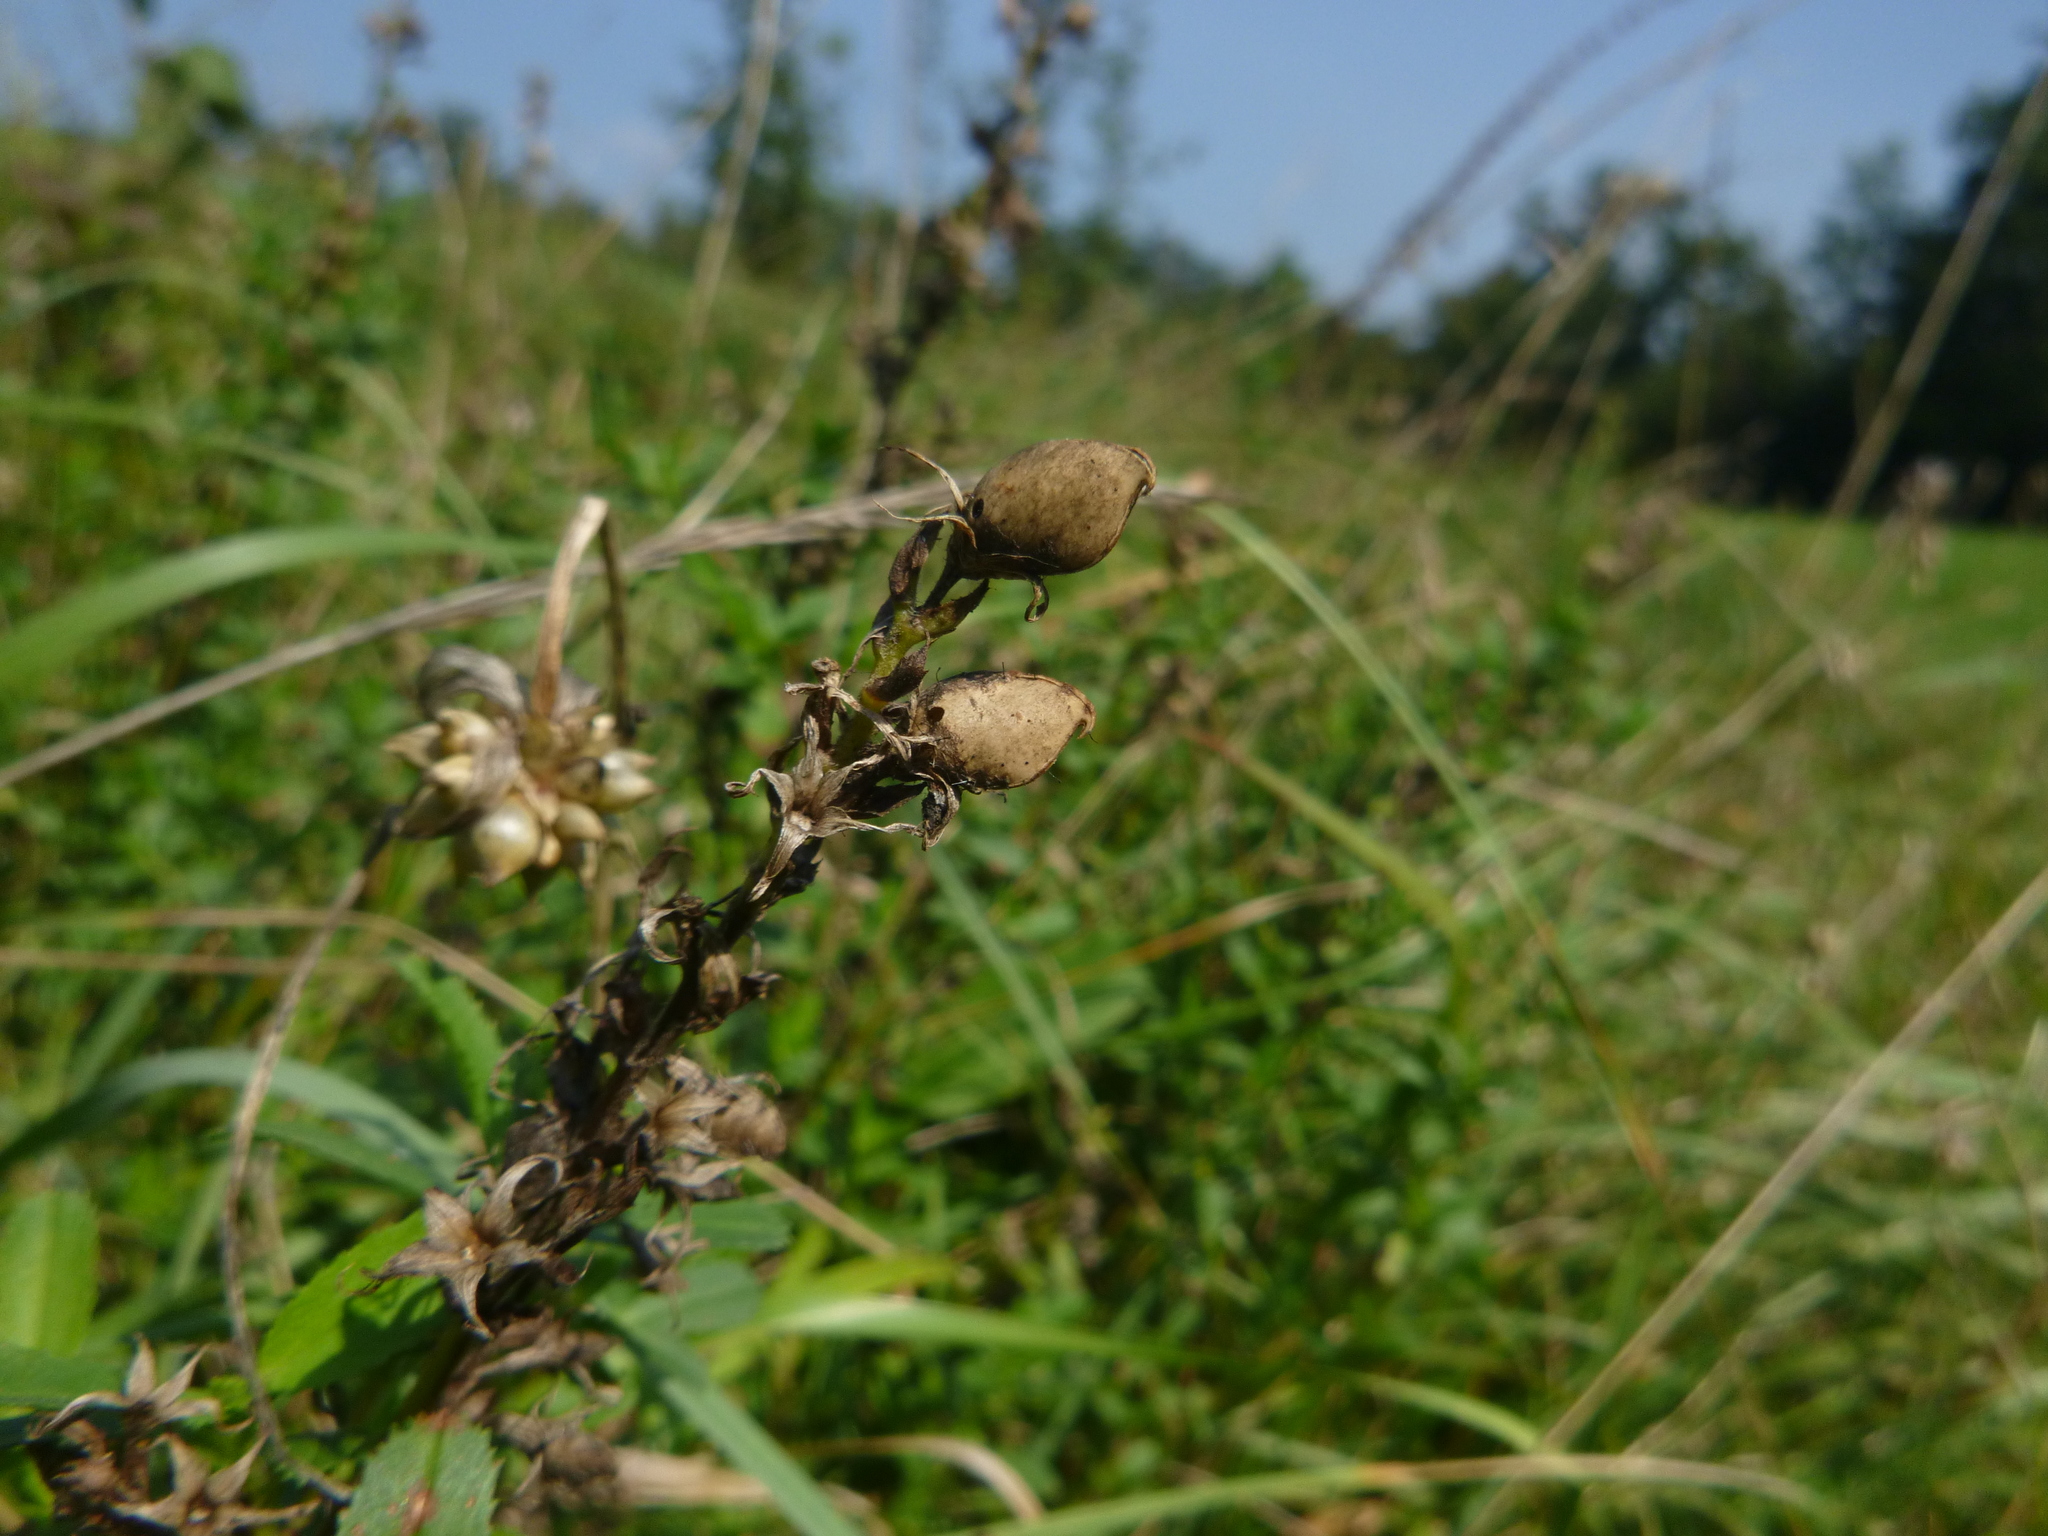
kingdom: Plantae
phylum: Tracheophyta
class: Magnoliopsida
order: Fabales
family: Fabaceae
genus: Ononis
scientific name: Ononis spinosa
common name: Spiny restharrow
